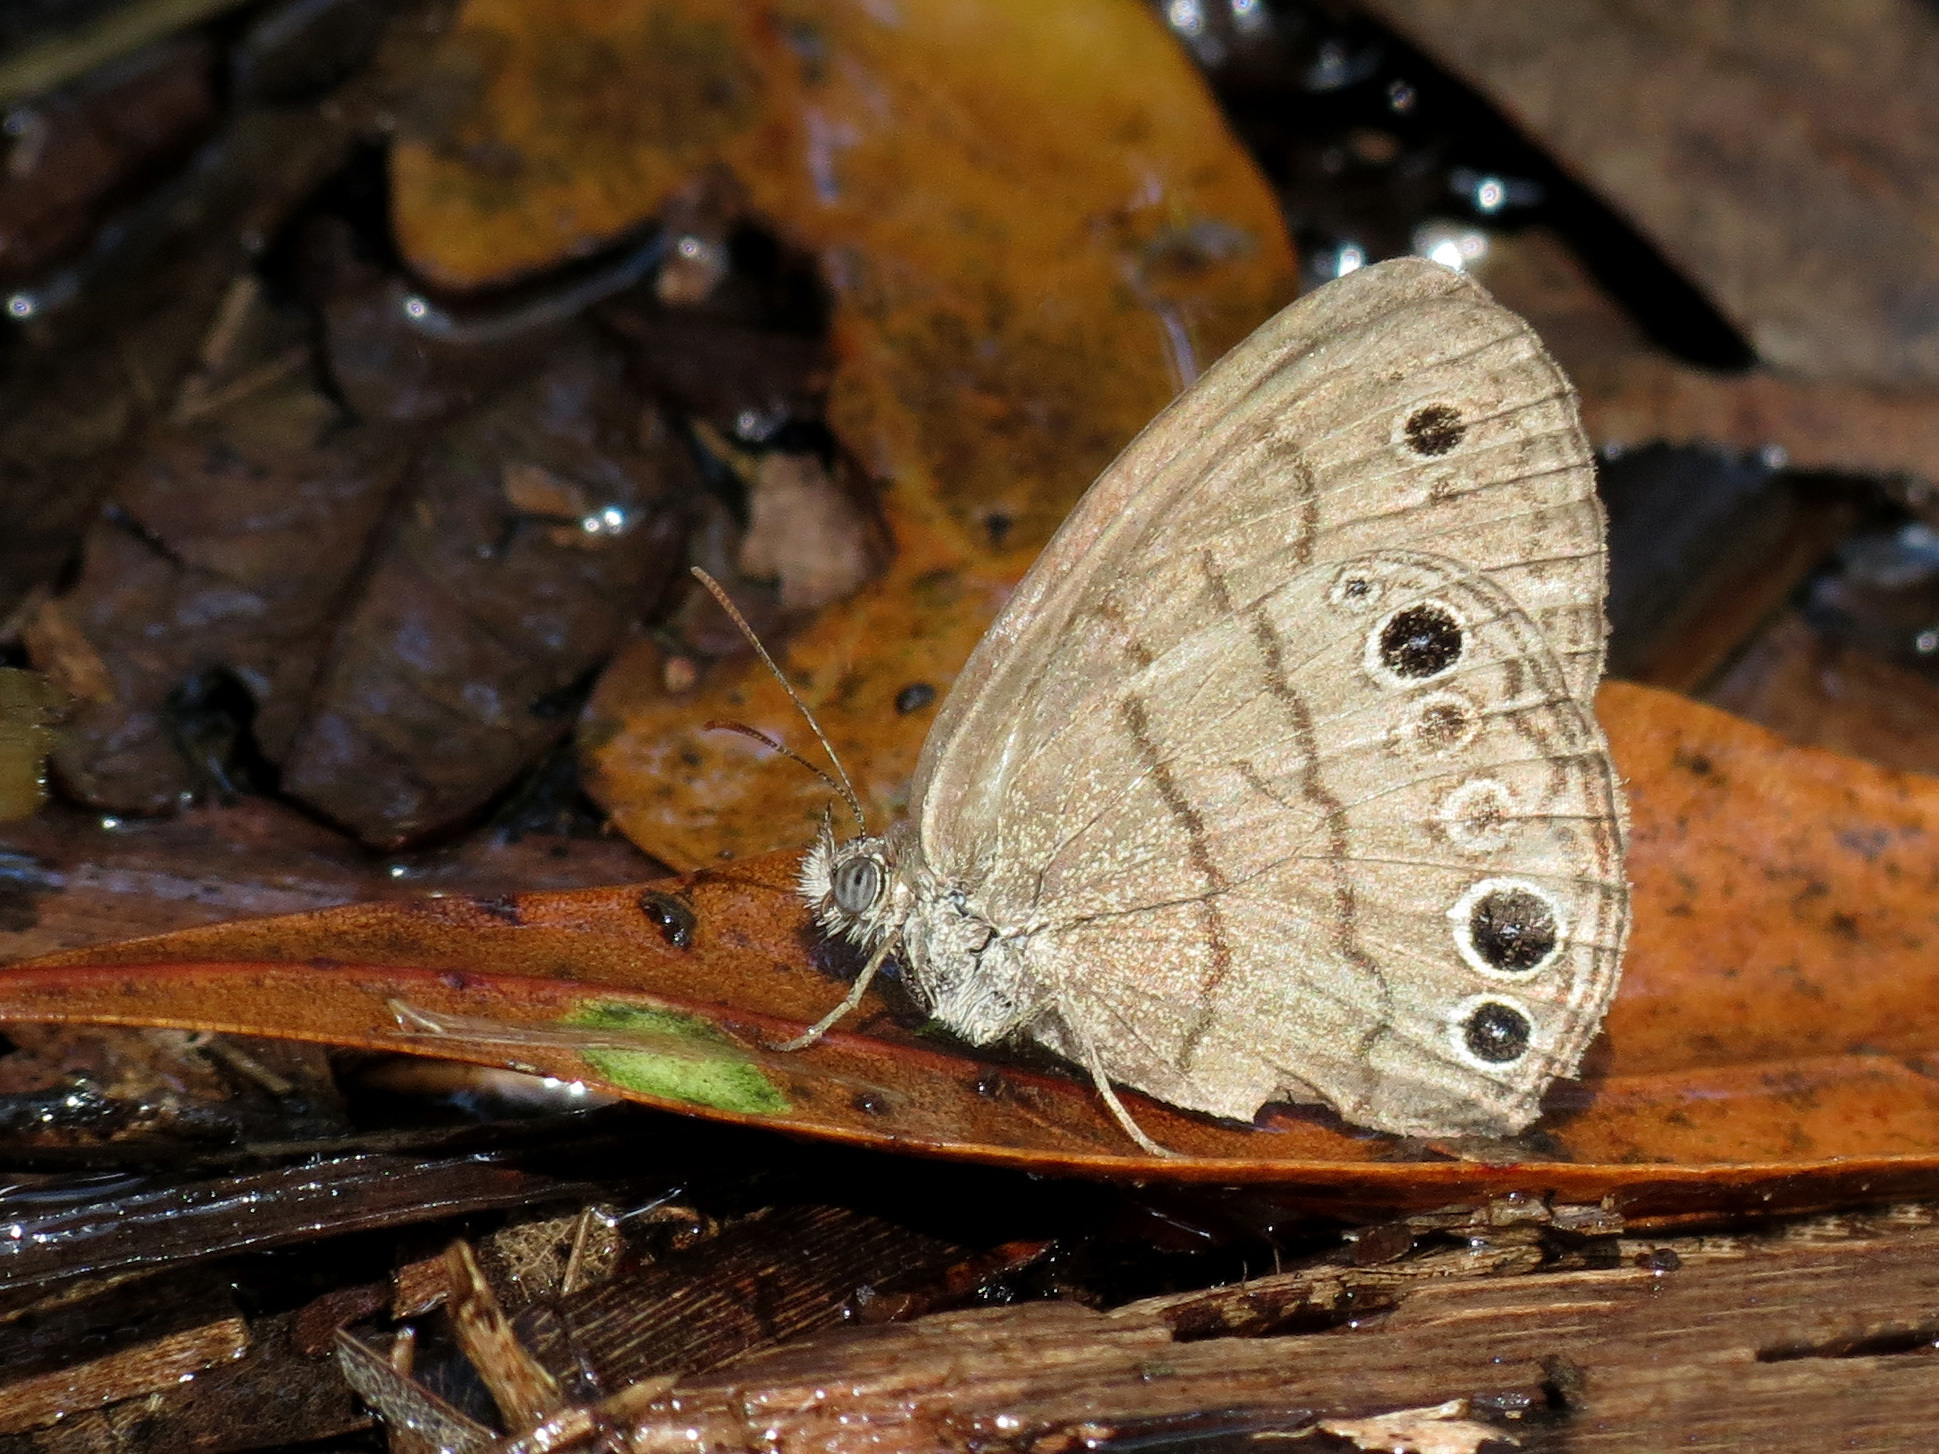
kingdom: Animalia
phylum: Arthropoda
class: Insecta
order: Lepidoptera
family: Nymphalidae
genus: Hermeuptychia
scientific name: Hermeuptychia hermes
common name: Hermes satyr
